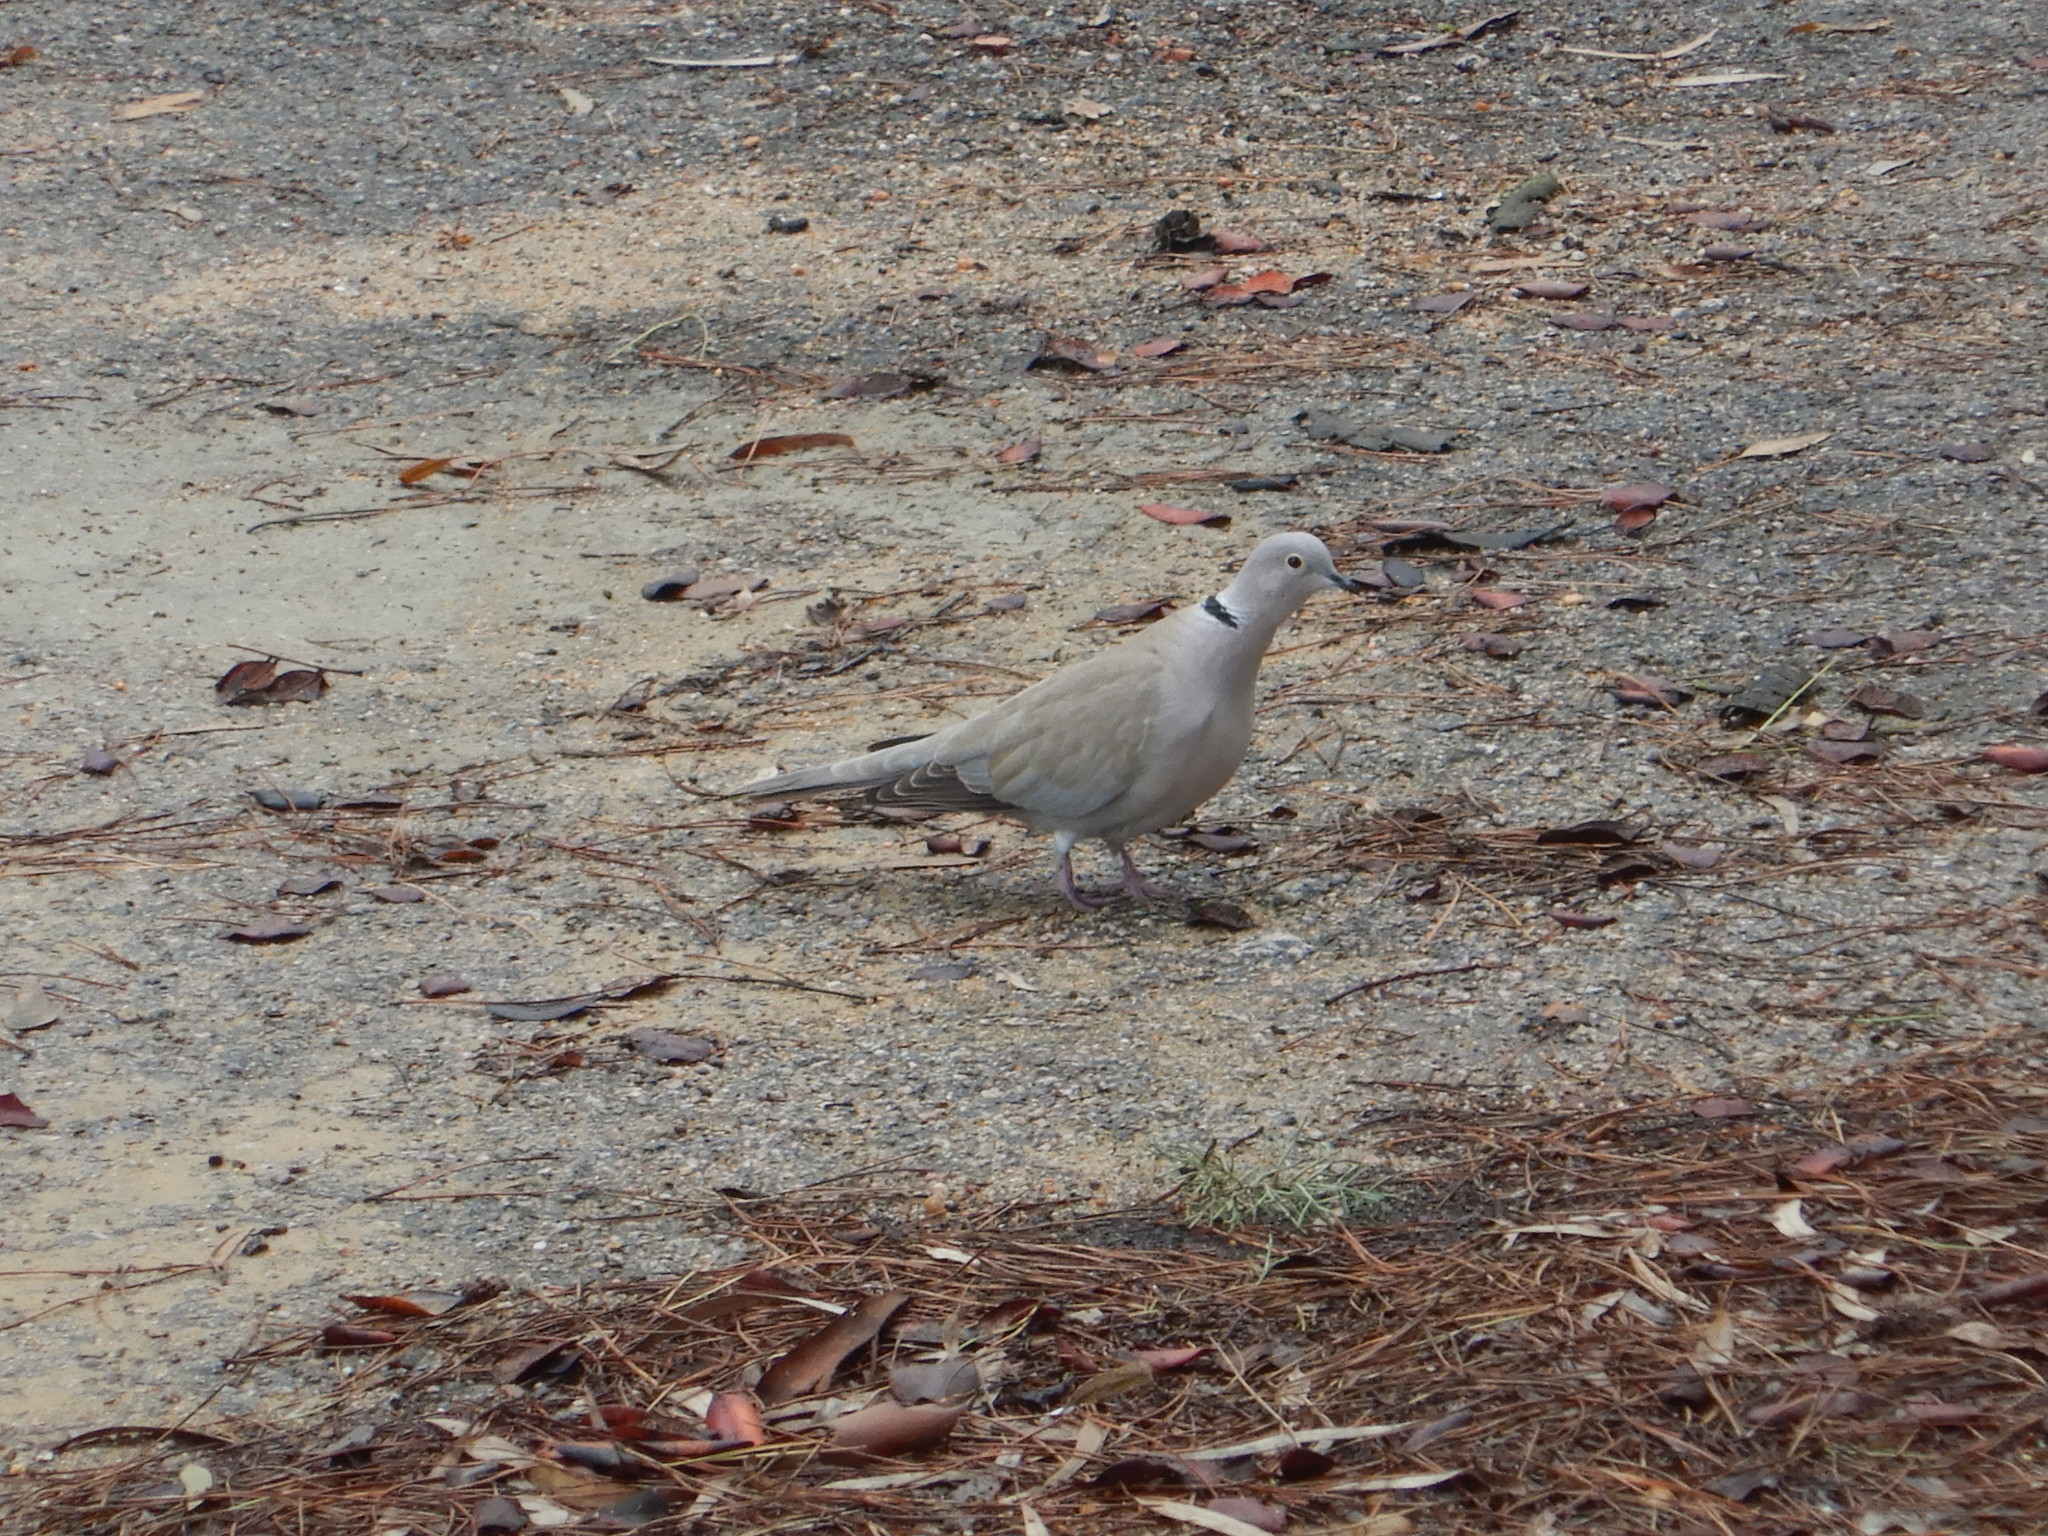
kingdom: Animalia
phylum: Chordata
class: Aves
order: Columbiformes
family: Columbidae
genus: Streptopelia
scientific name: Streptopelia decaocto
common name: Eurasian collared dove
